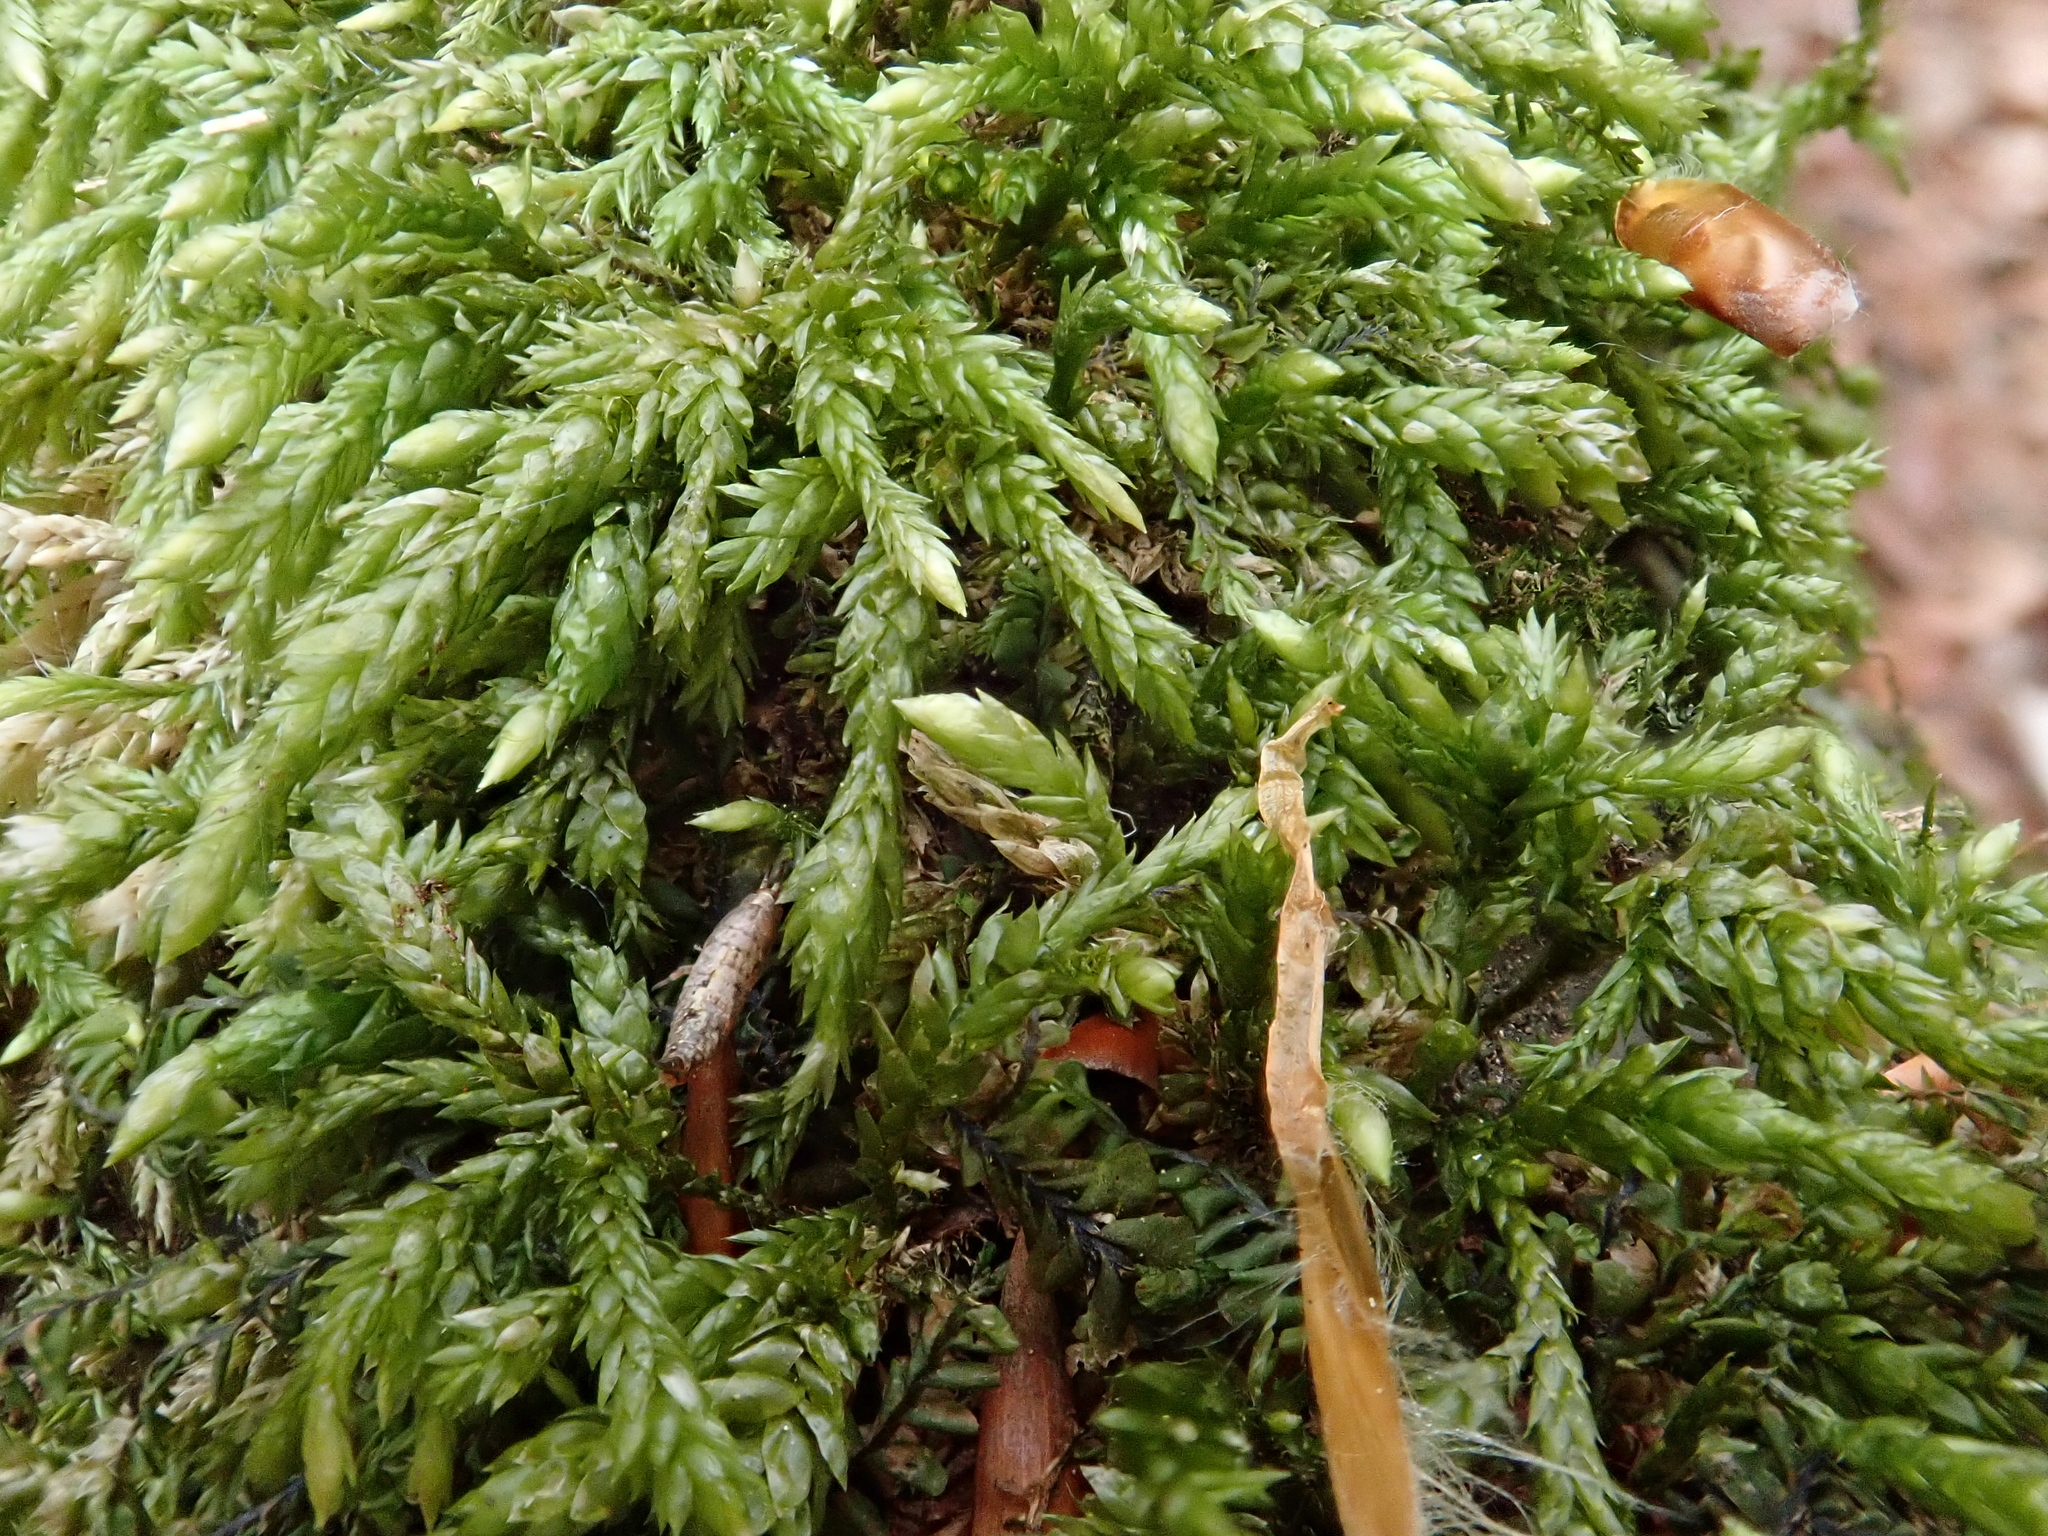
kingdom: Plantae
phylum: Bryophyta
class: Bryopsida
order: Hypnales
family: Lembophyllaceae
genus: Isothecium
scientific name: Isothecium alopecuroides
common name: Larger mouse-tail moss
